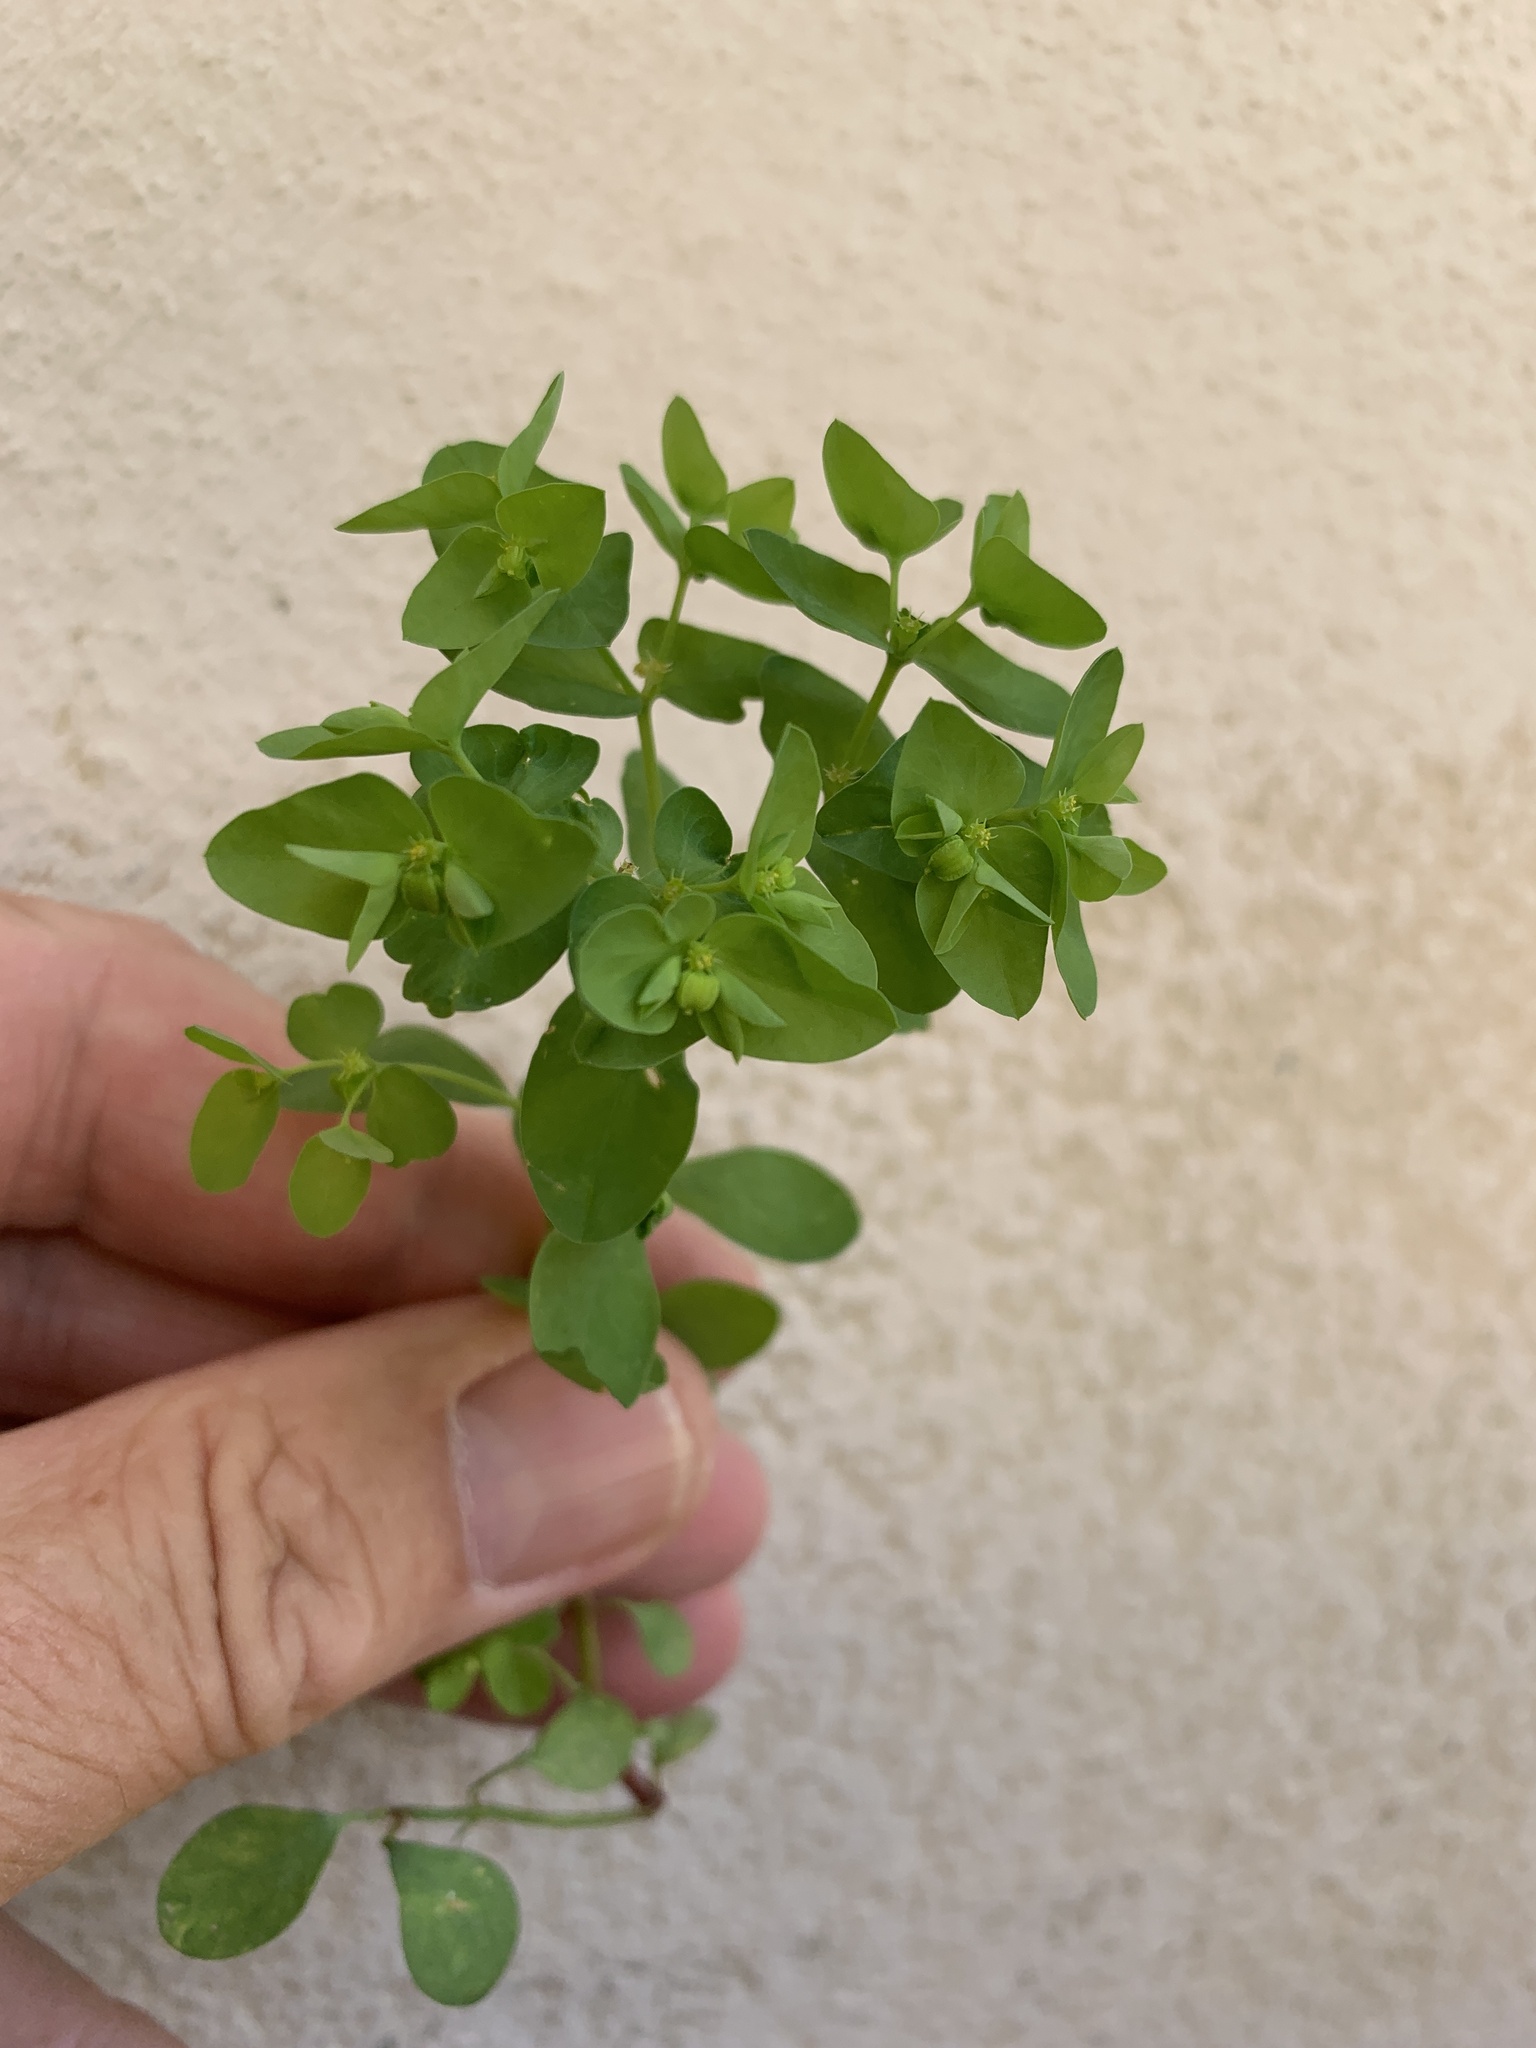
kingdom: Plantae
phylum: Tracheophyta
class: Magnoliopsida
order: Malpighiales
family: Euphorbiaceae
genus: Euphorbia
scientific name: Euphorbia peplus
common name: Petty spurge
